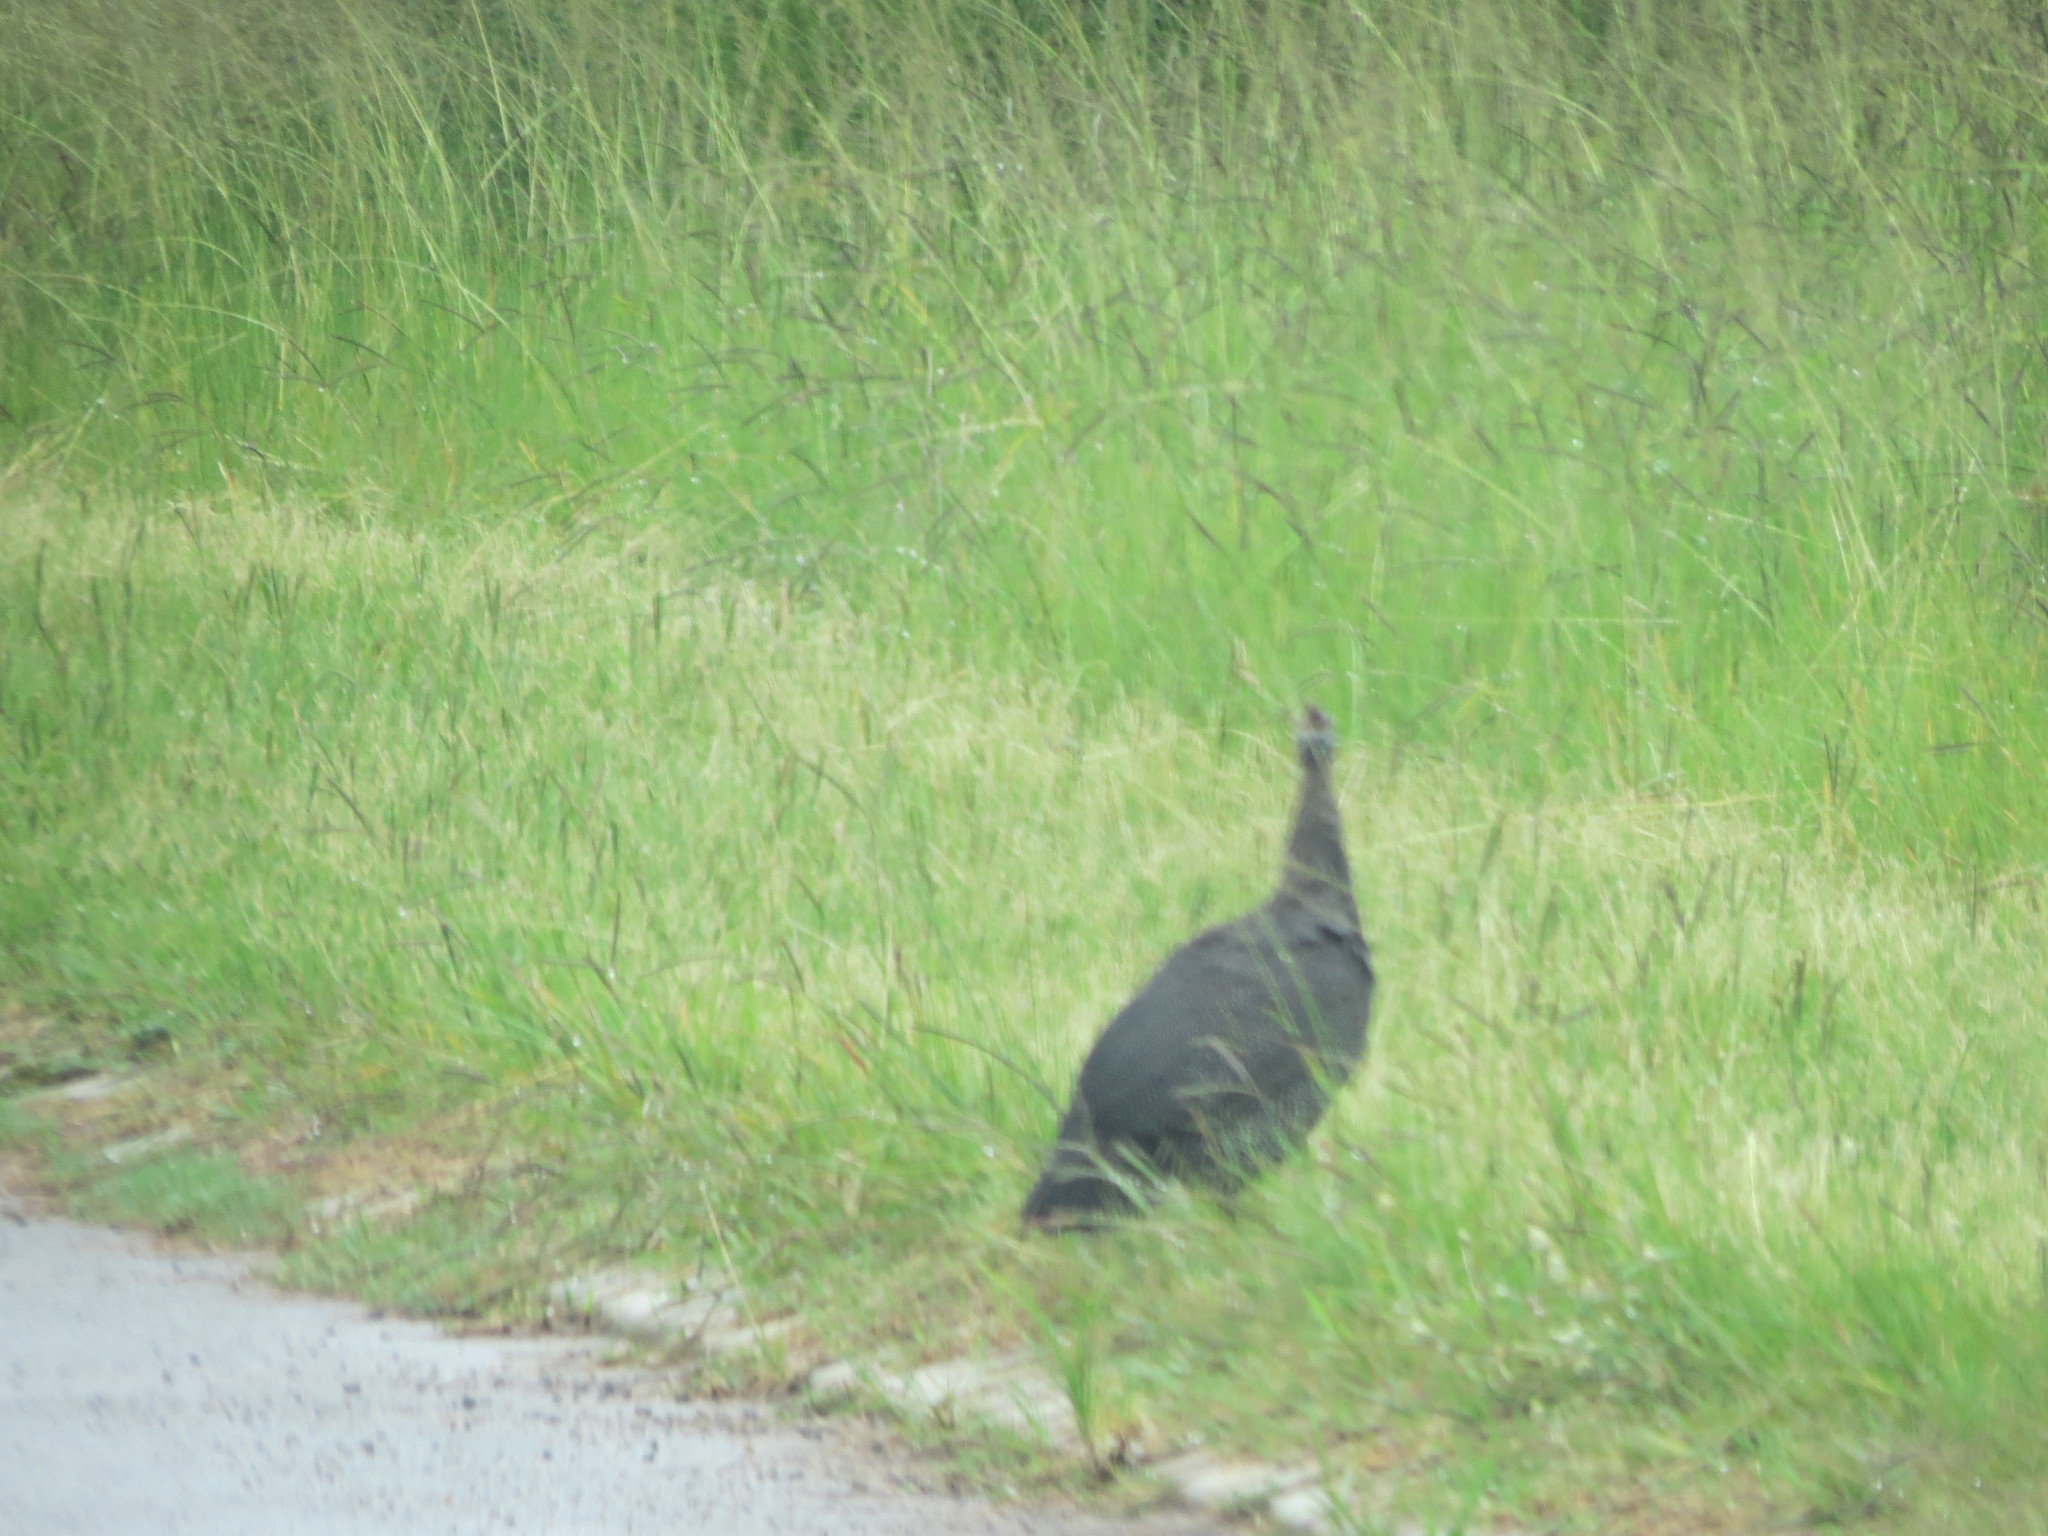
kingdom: Animalia
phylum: Chordata
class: Aves
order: Galliformes
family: Numididae
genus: Numida
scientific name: Numida meleagris
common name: Helmeted guineafowl
